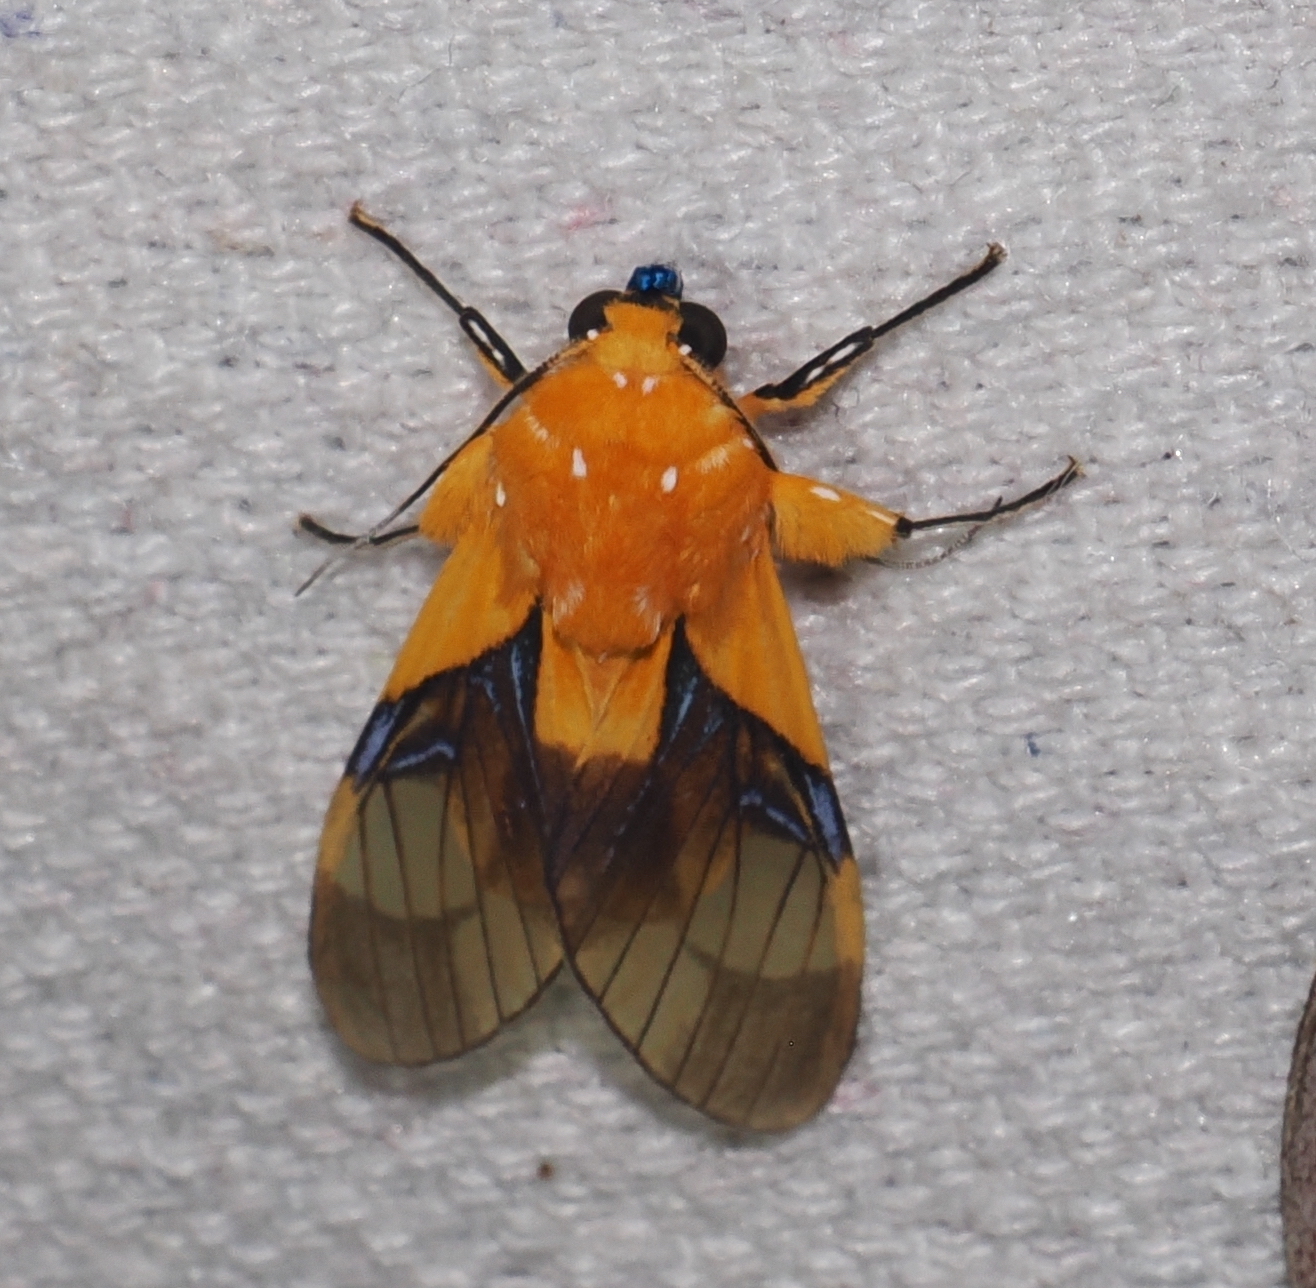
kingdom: Animalia
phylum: Arthropoda
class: Insecta
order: Lepidoptera
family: Erebidae
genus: Symphlebia
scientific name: Symphlebia hyalina
